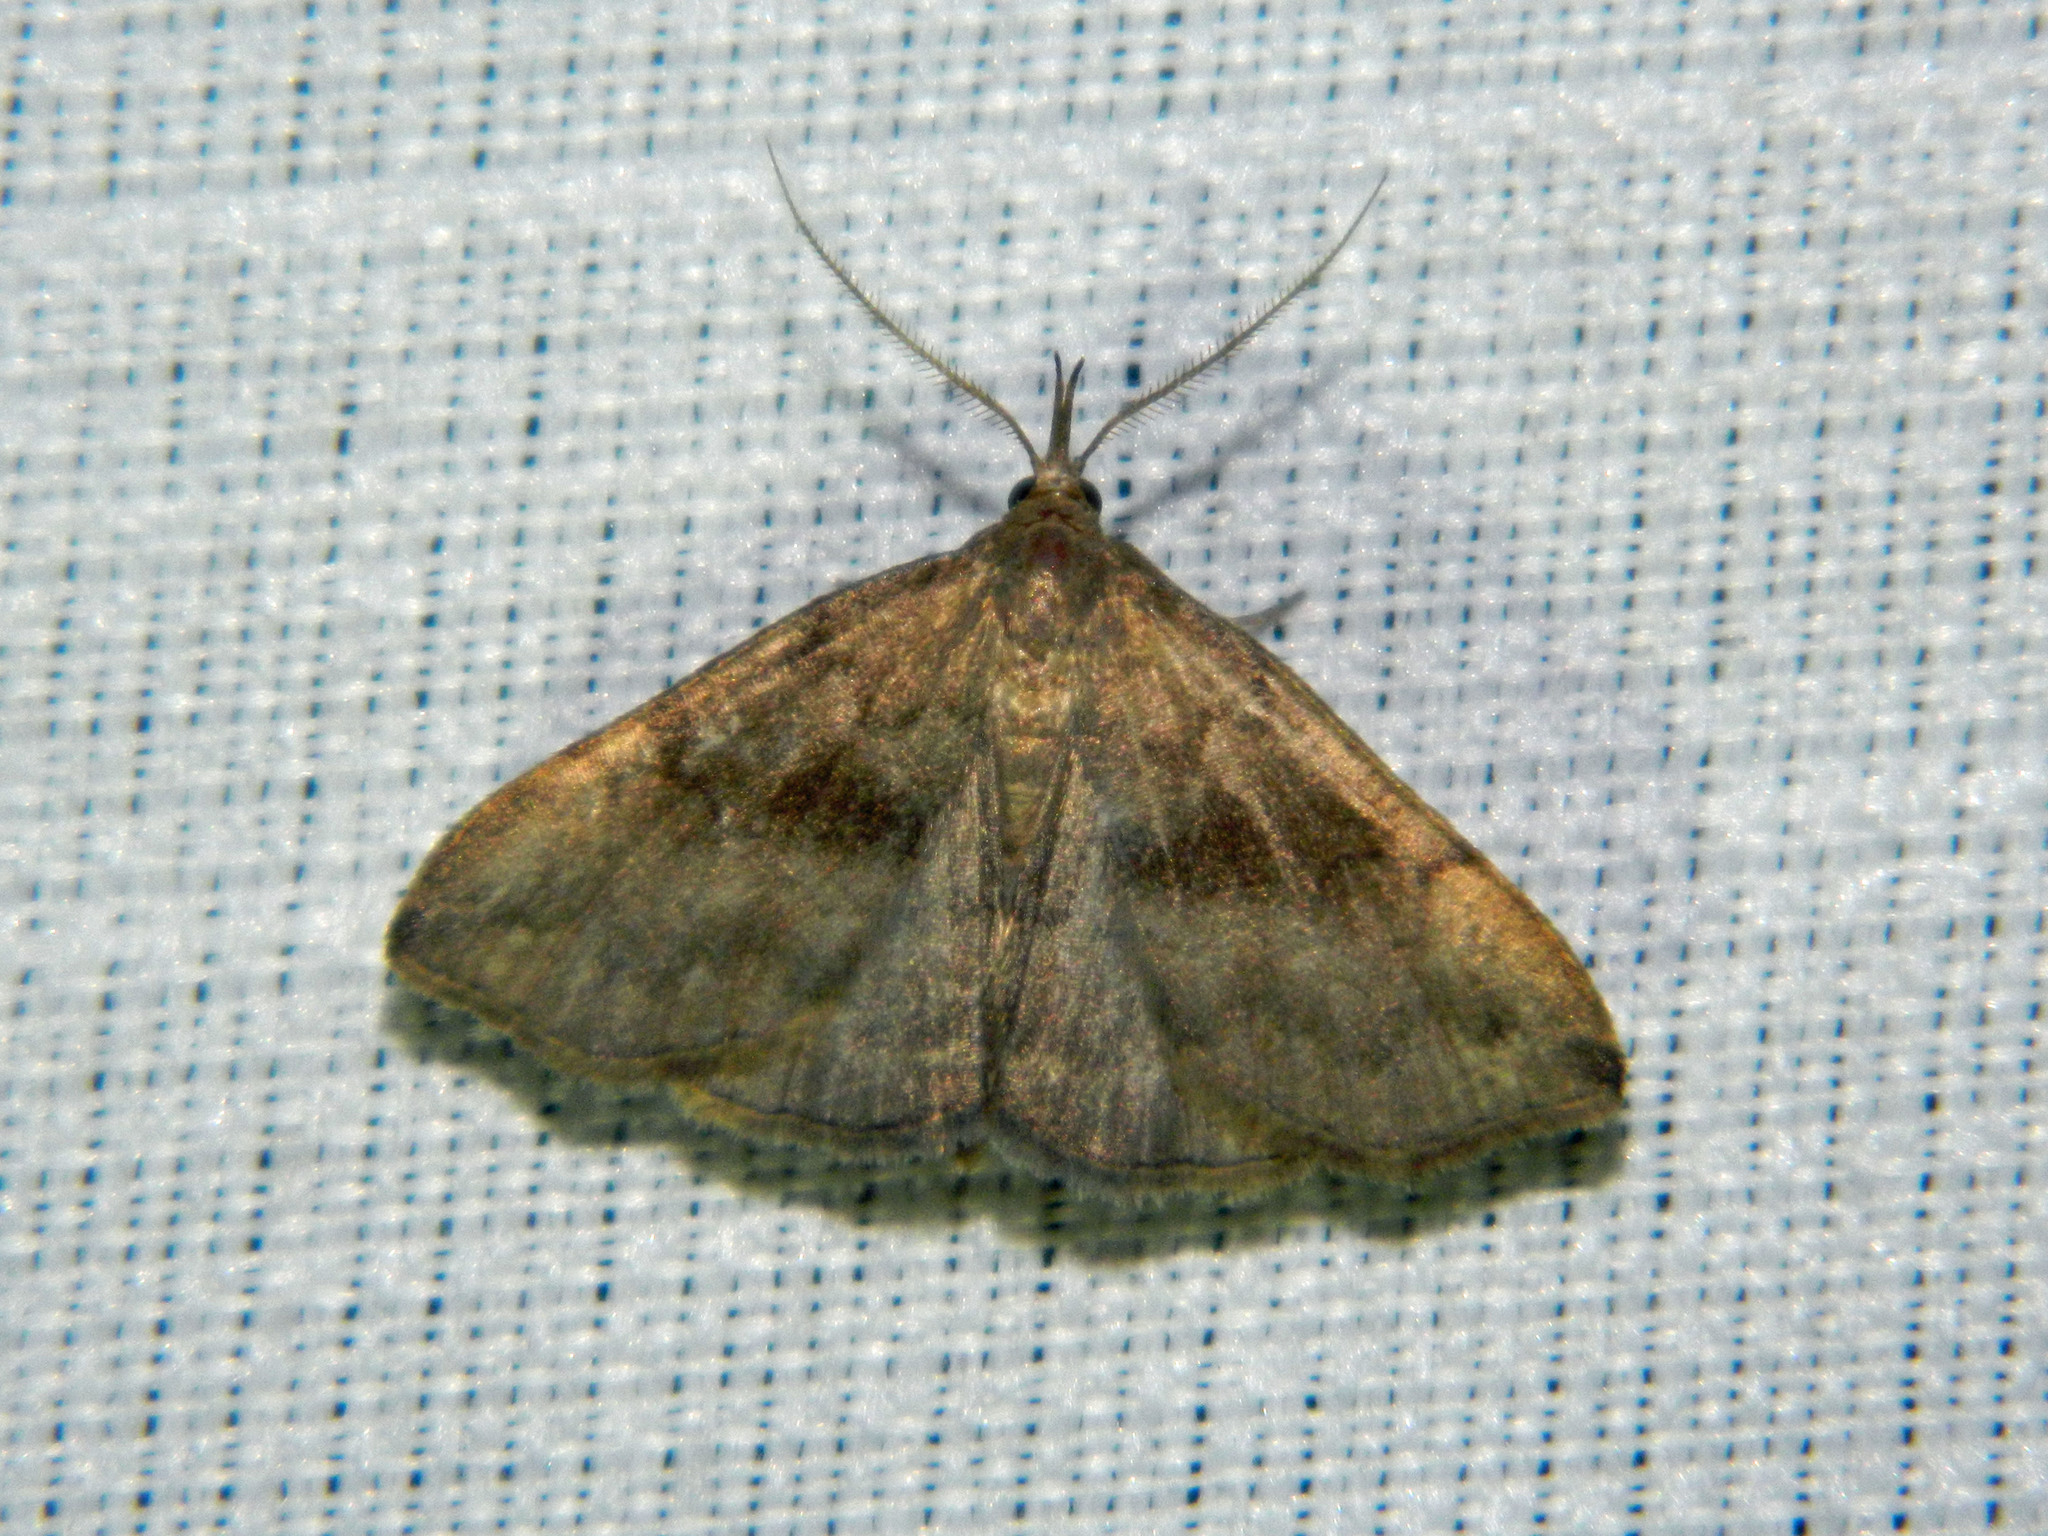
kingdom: Animalia
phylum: Arthropoda
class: Insecta
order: Lepidoptera
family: Erebidae
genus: Phalaenostola
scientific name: Phalaenostola eumelusalis
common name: Dark phalaenostola moth
